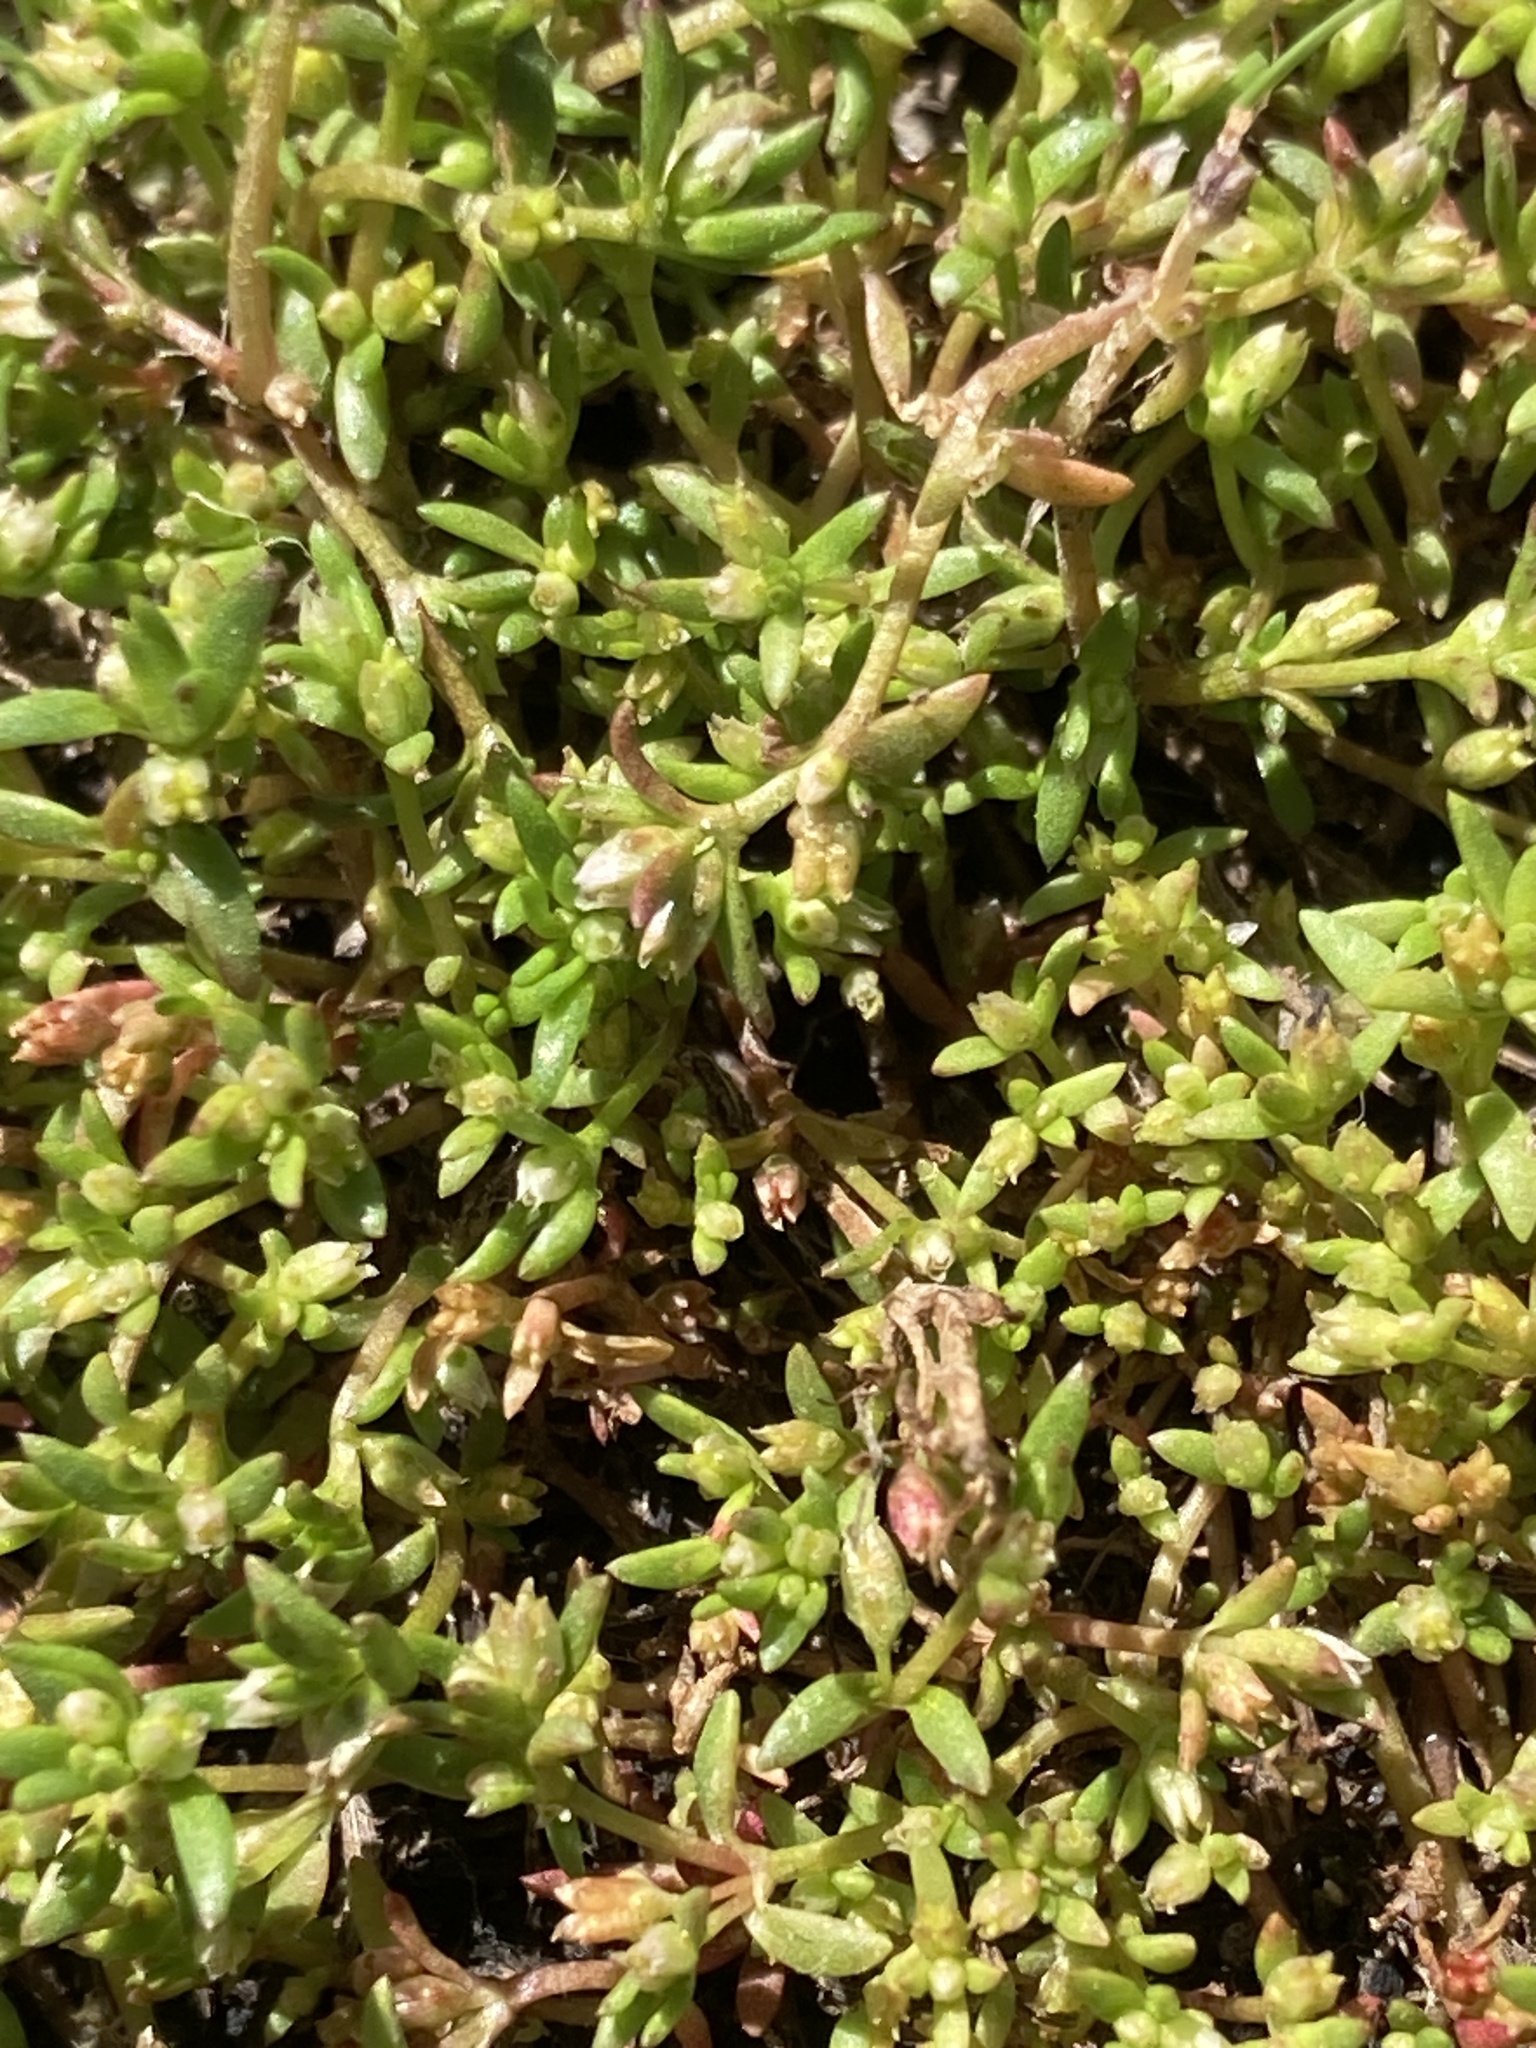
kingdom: Plantae
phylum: Tracheophyta
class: Magnoliopsida
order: Saxifragales
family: Crassulaceae
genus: Crassula
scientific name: Crassula aquatica
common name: Pigmyweed
